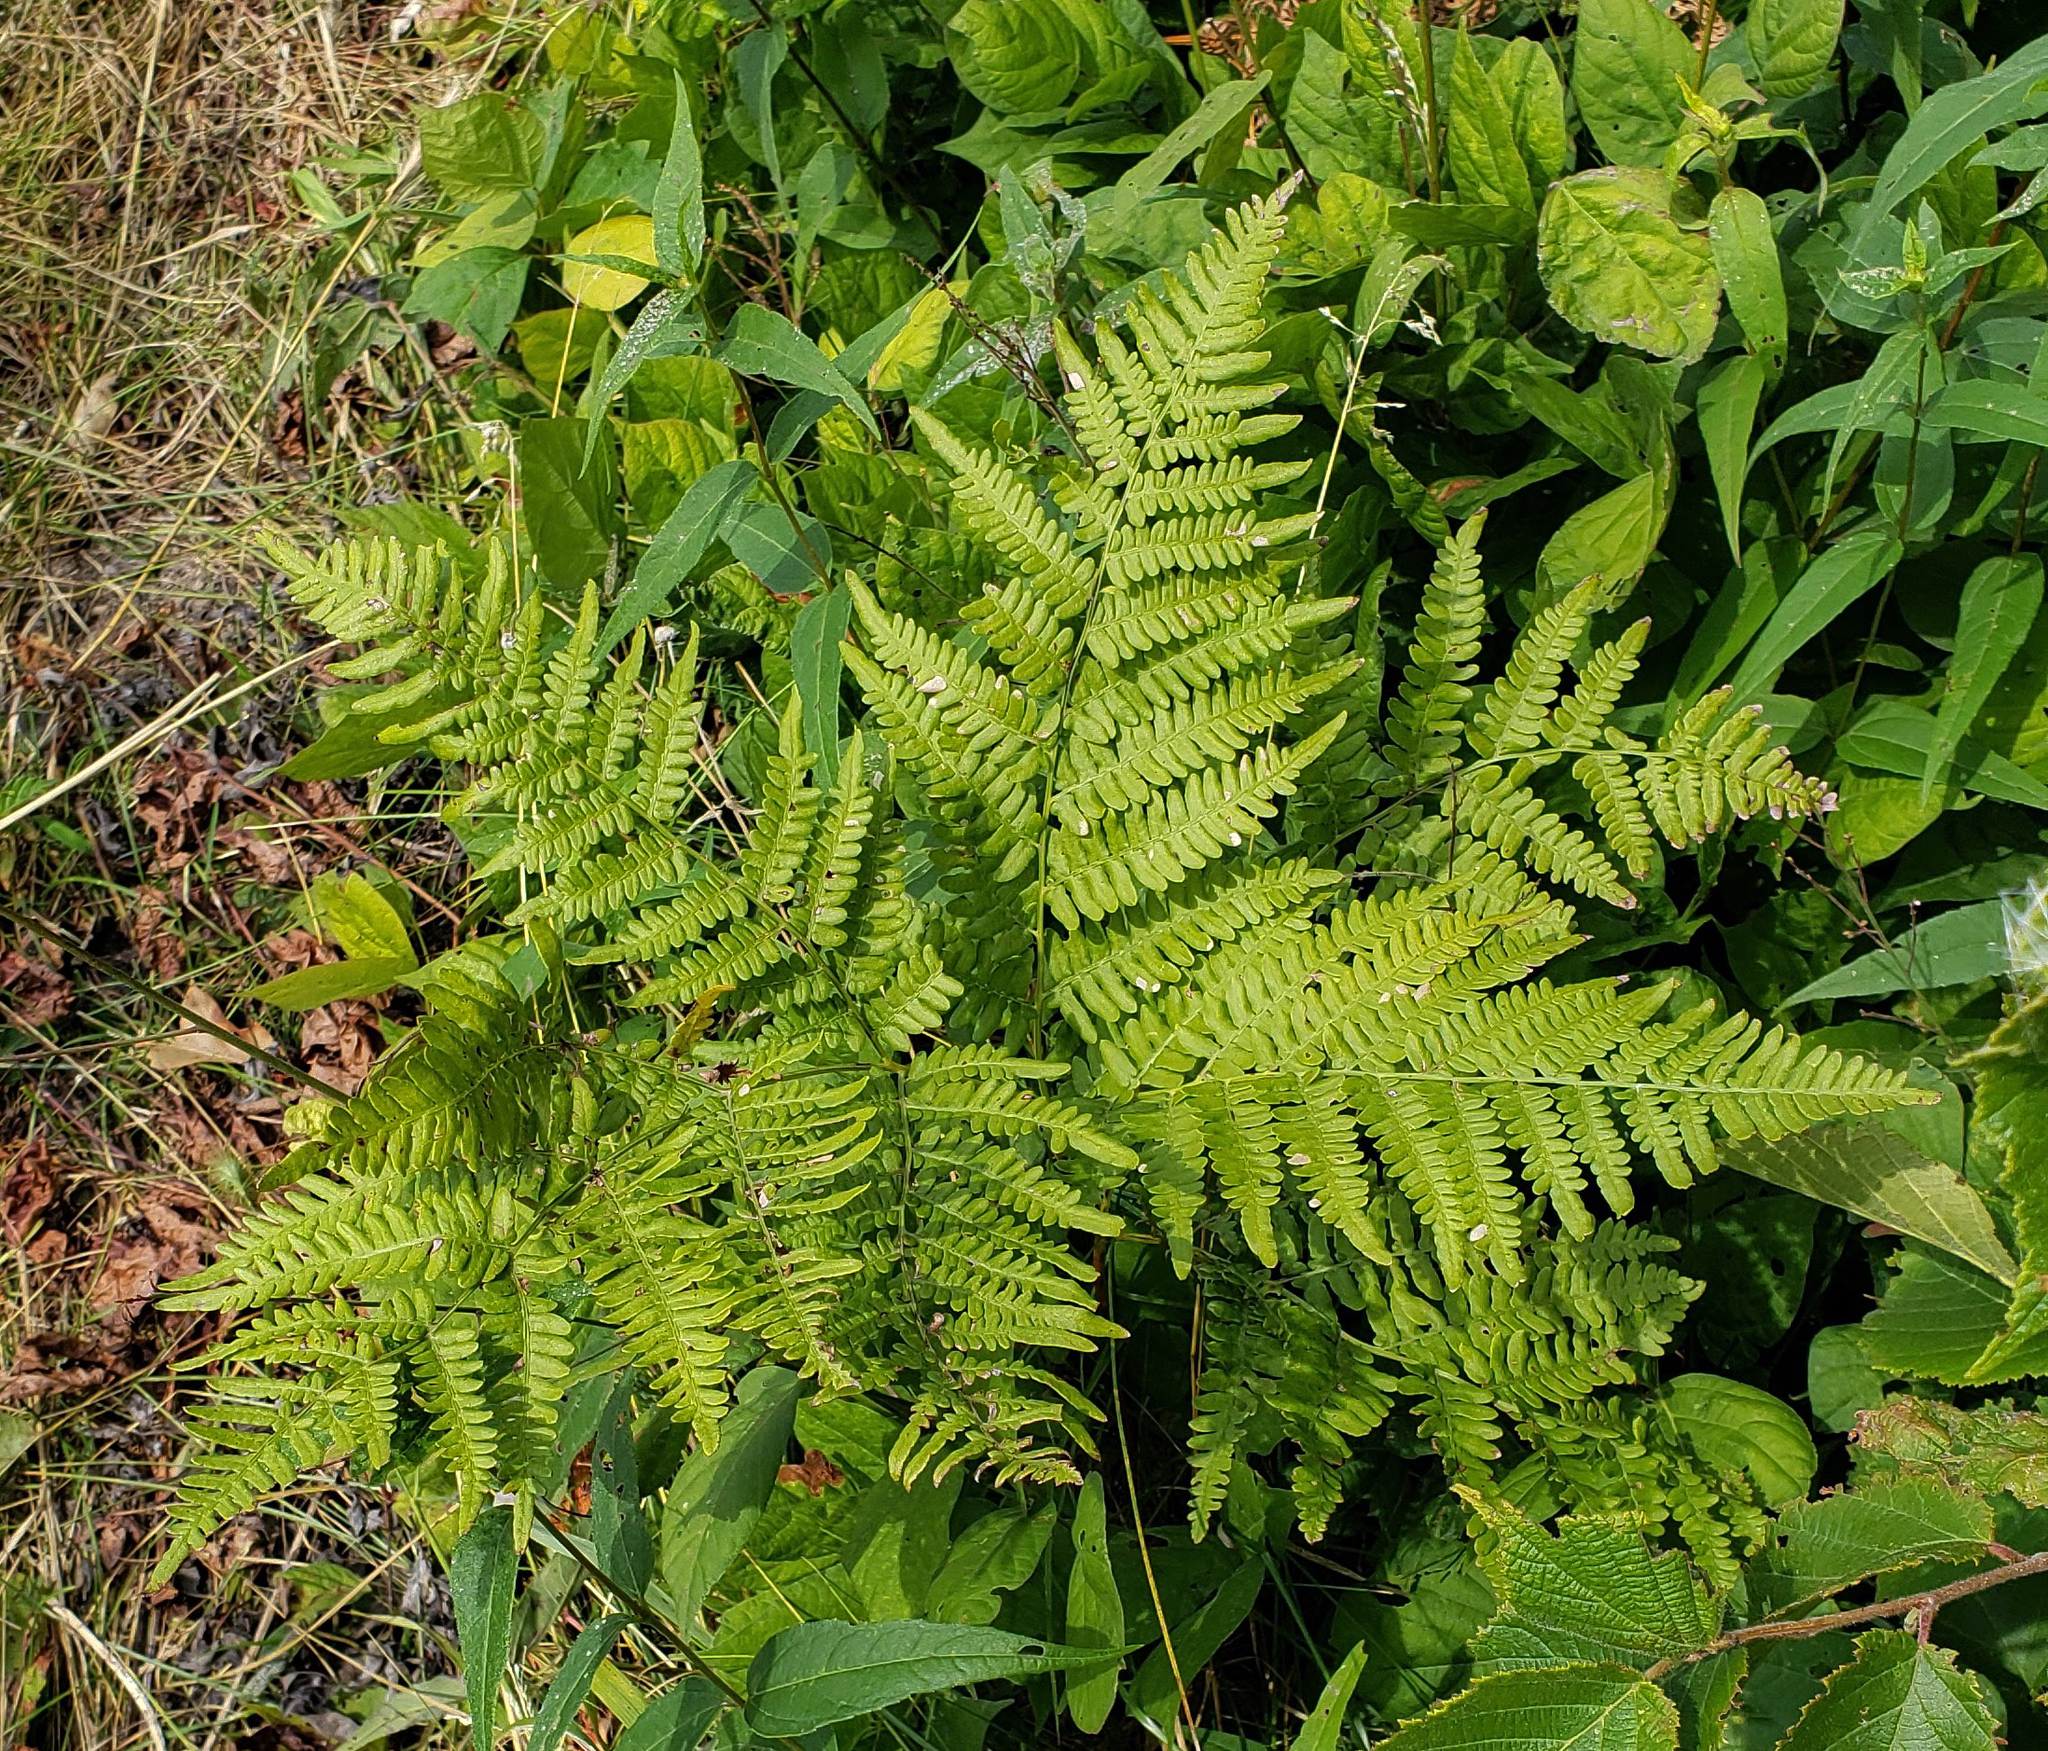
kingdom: Plantae
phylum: Tracheophyta
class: Polypodiopsida
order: Polypodiales
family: Dennstaedtiaceae
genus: Pteridium
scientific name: Pteridium aquilinum
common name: Bracken
